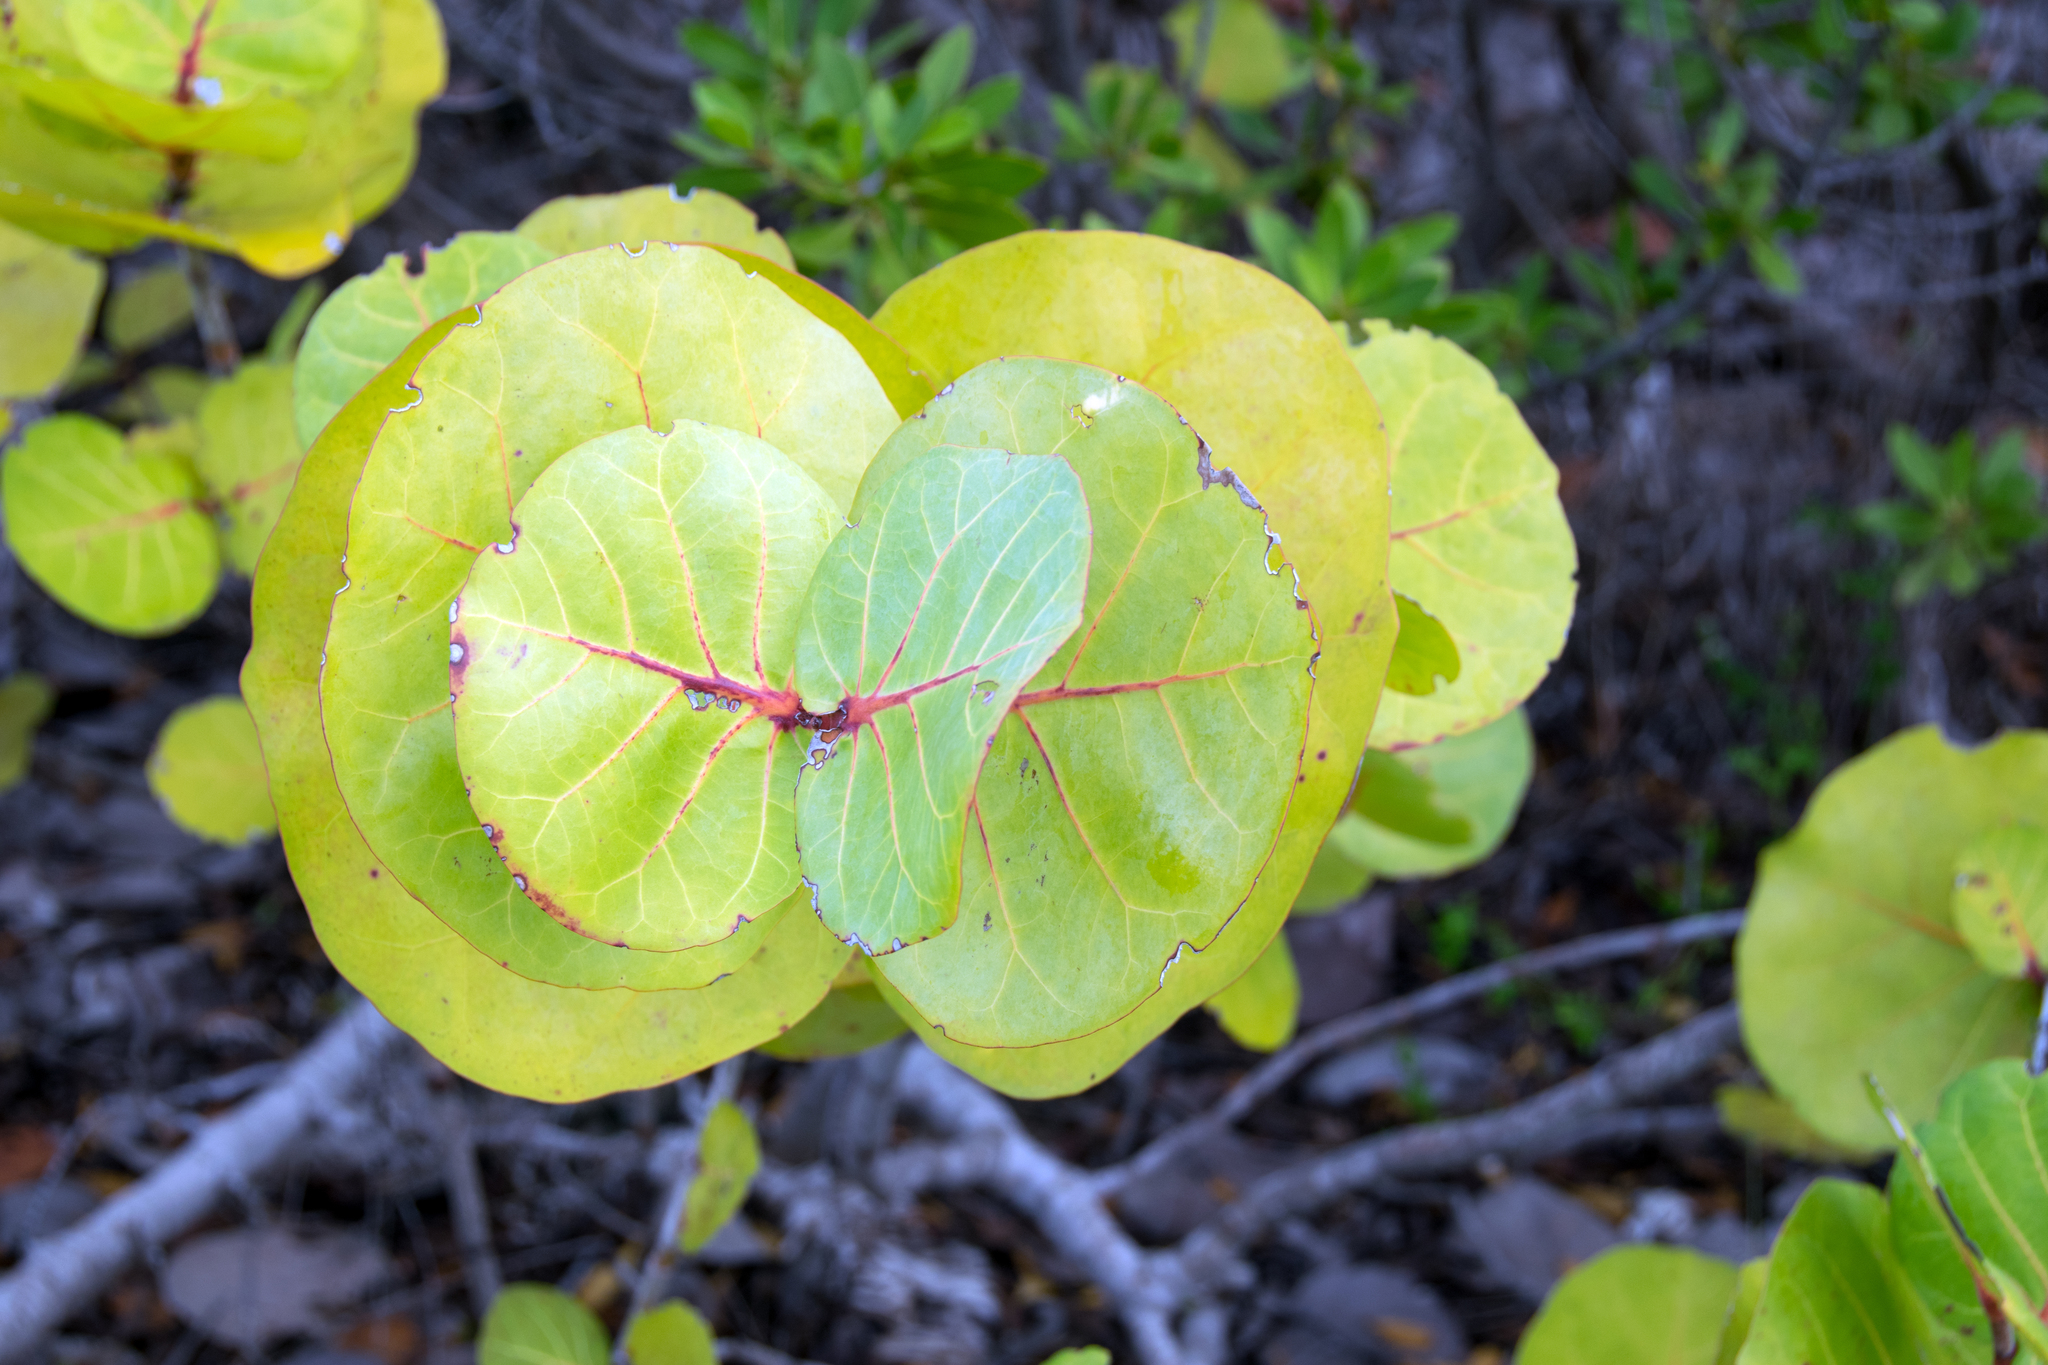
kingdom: Plantae
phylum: Tracheophyta
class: Magnoliopsida
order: Caryophyllales
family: Polygonaceae
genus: Coccoloba
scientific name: Coccoloba uvifera
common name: Seagrape
